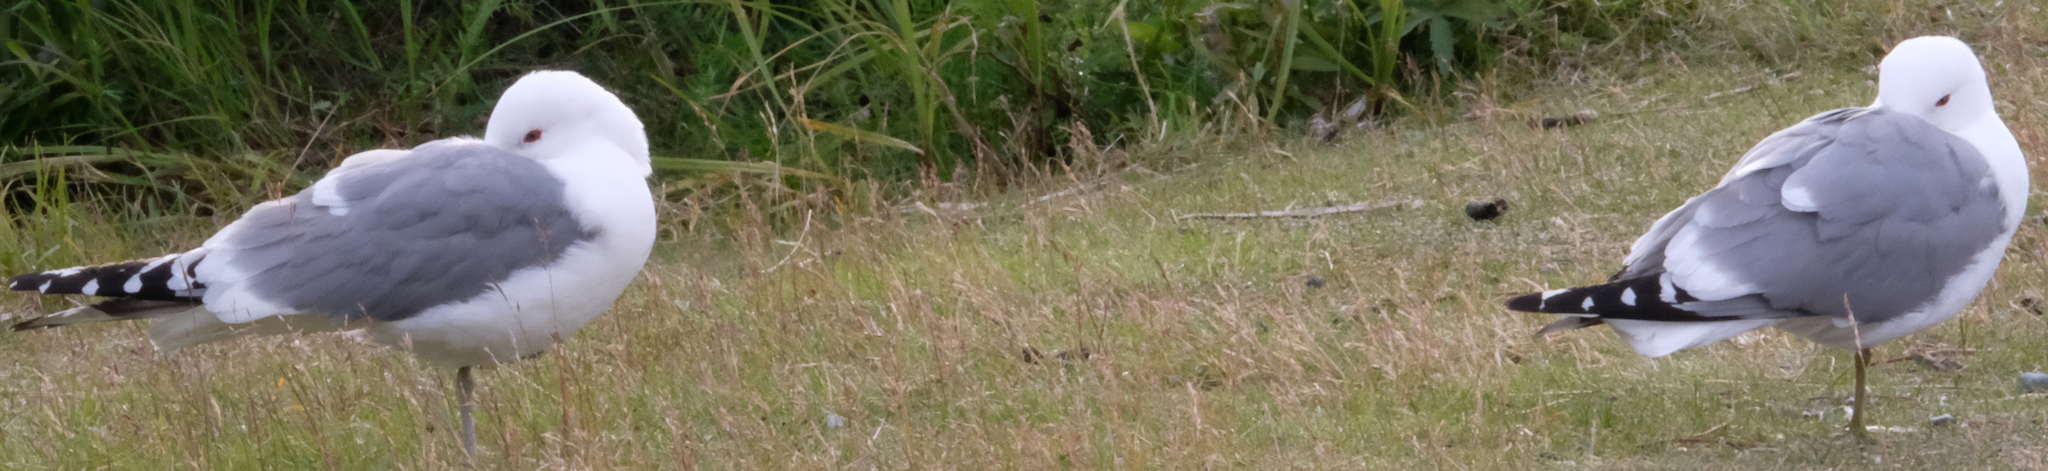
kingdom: Animalia
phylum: Chordata
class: Aves
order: Charadriiformes
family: Laridae
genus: Larus
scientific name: Larus brachyrhynchus
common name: Short-billed gull
